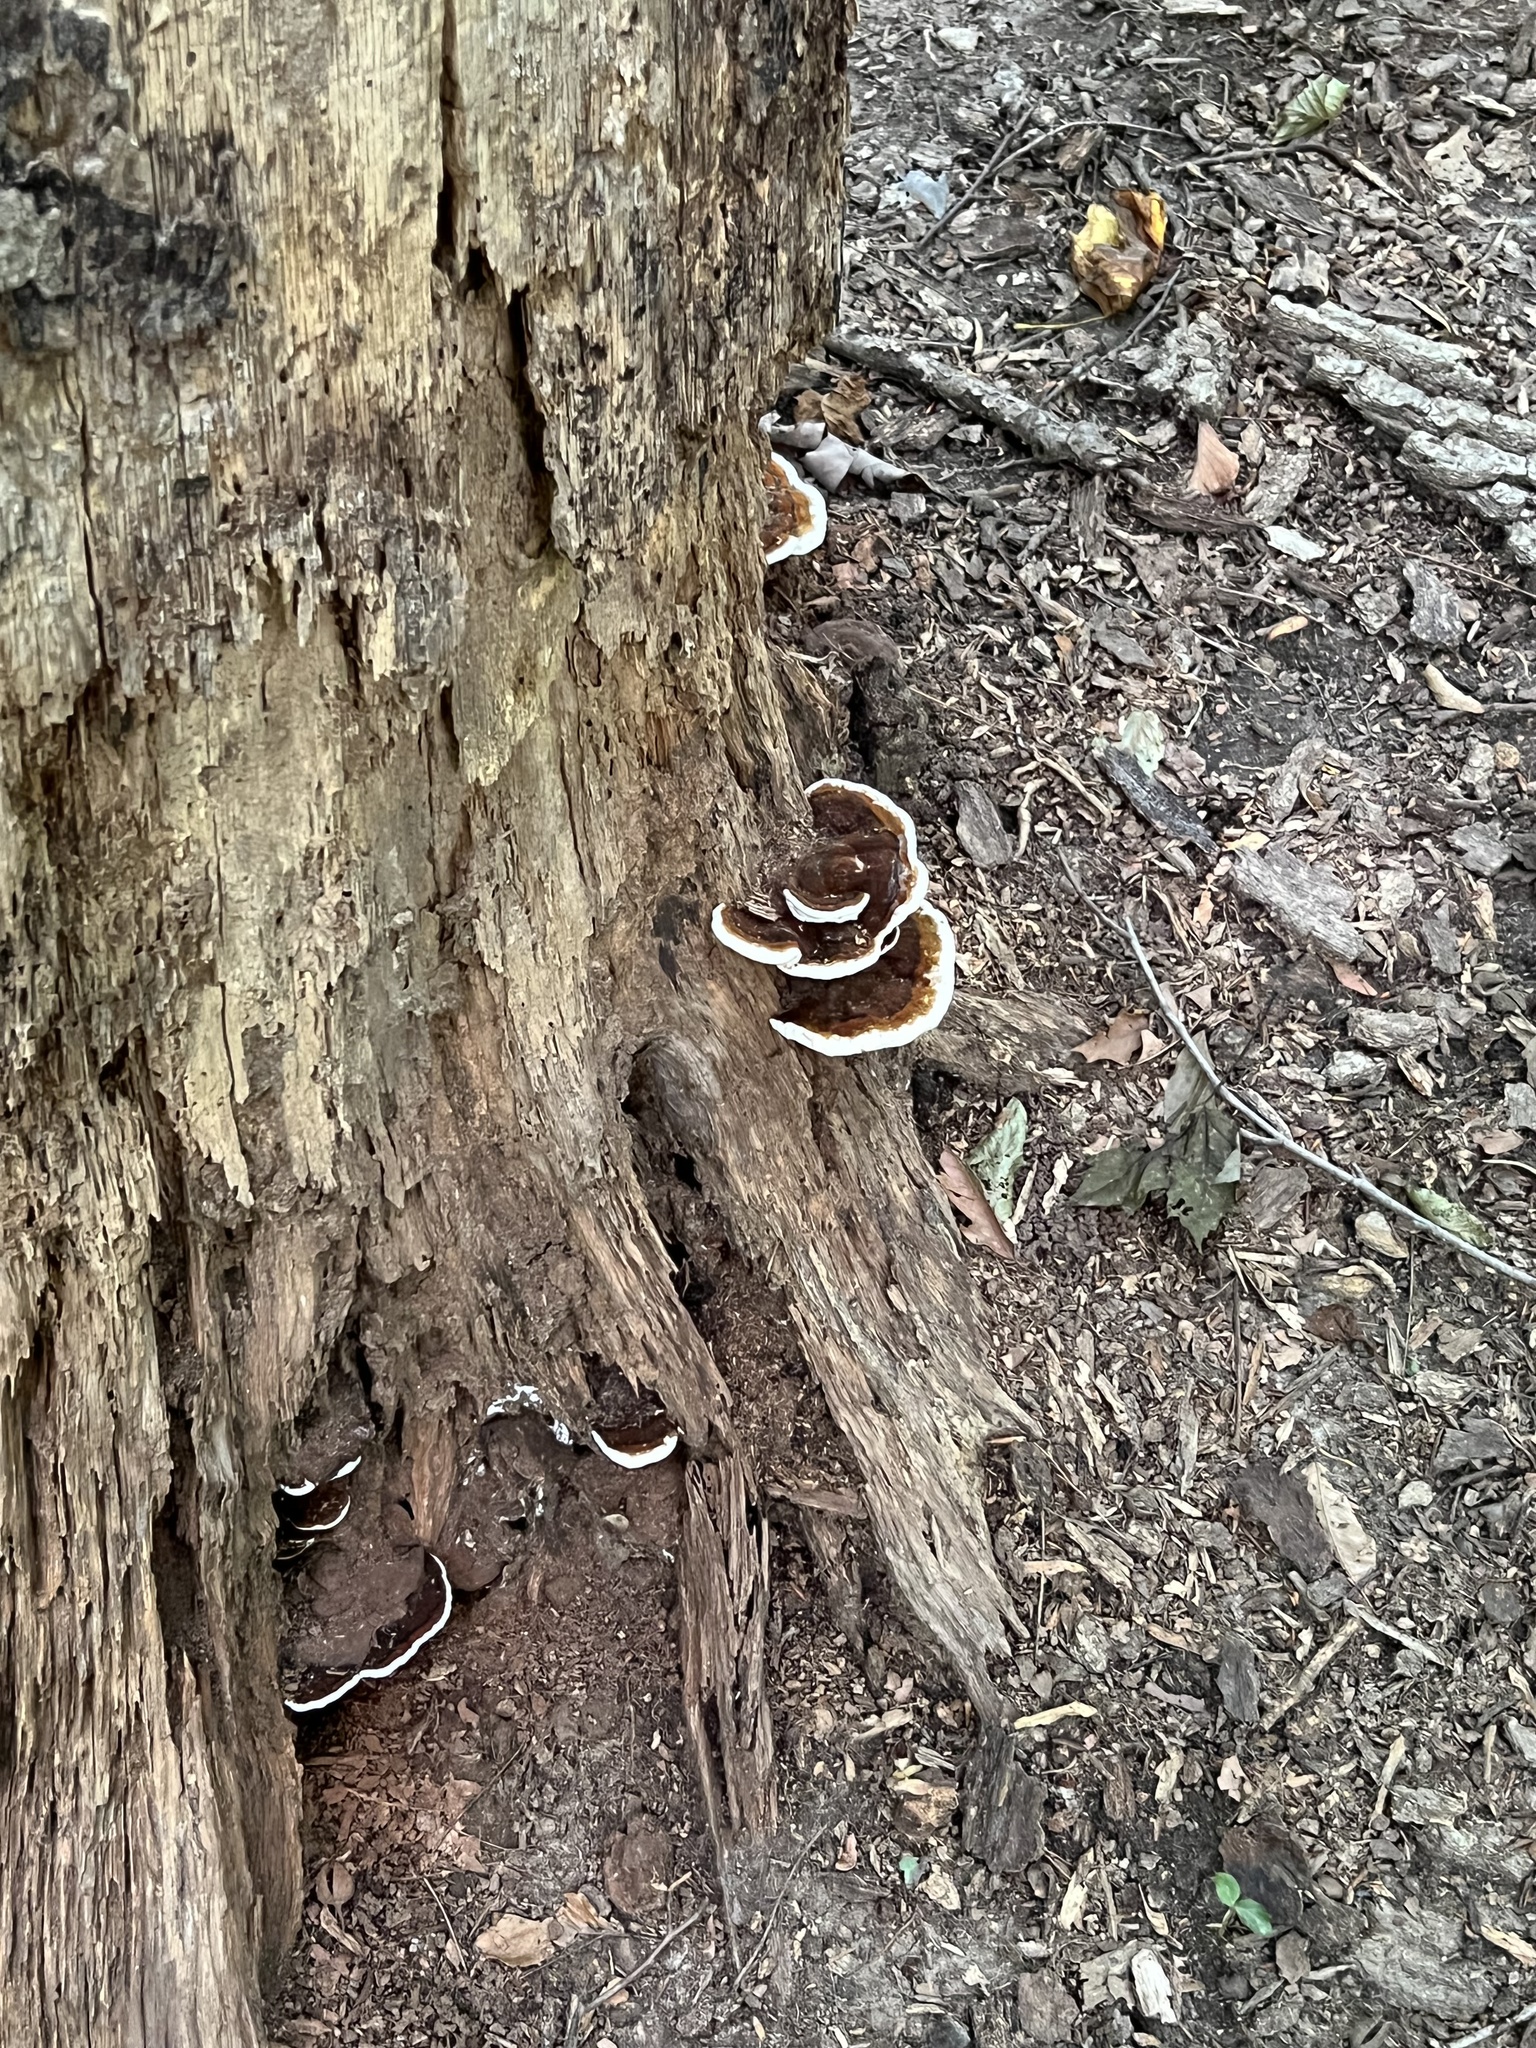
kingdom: Fungi
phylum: Basidiomycota
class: Agaricomycetes
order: Polyporales
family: Polyporaceae
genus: Ganoderma
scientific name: Ganoderma lobatum
